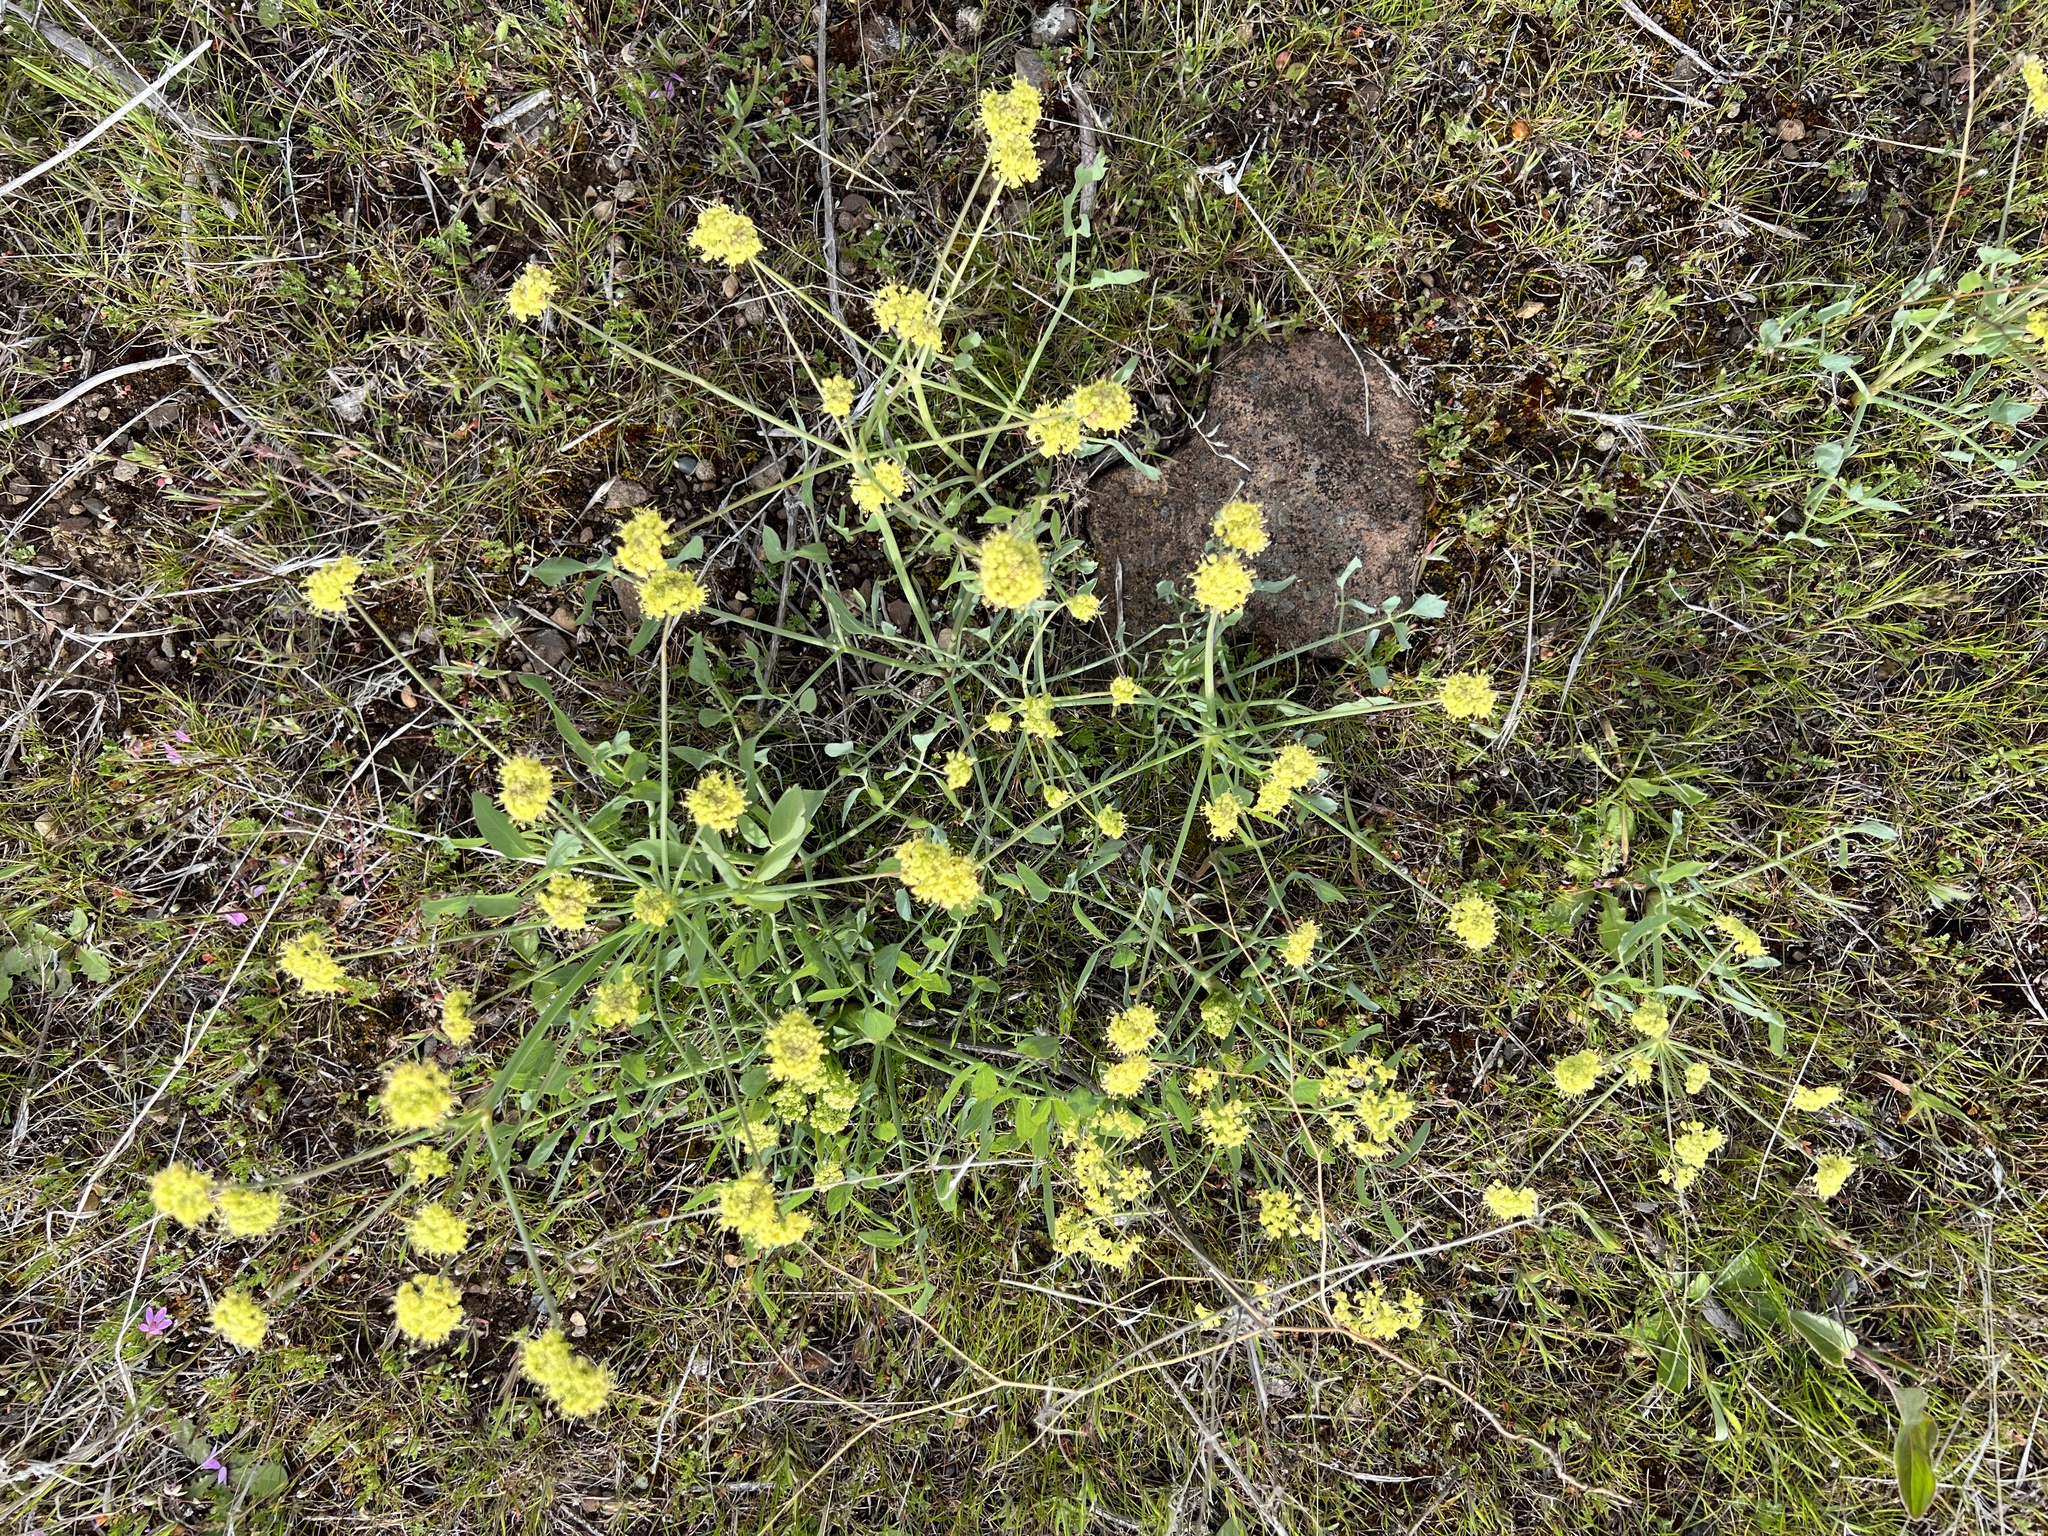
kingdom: Plantae
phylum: Tracheophyta
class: Magnoliopsida
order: Apiales
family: Apiaceae
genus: Lomatium
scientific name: Lomatium nudicaule
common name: Pestle lomatium
